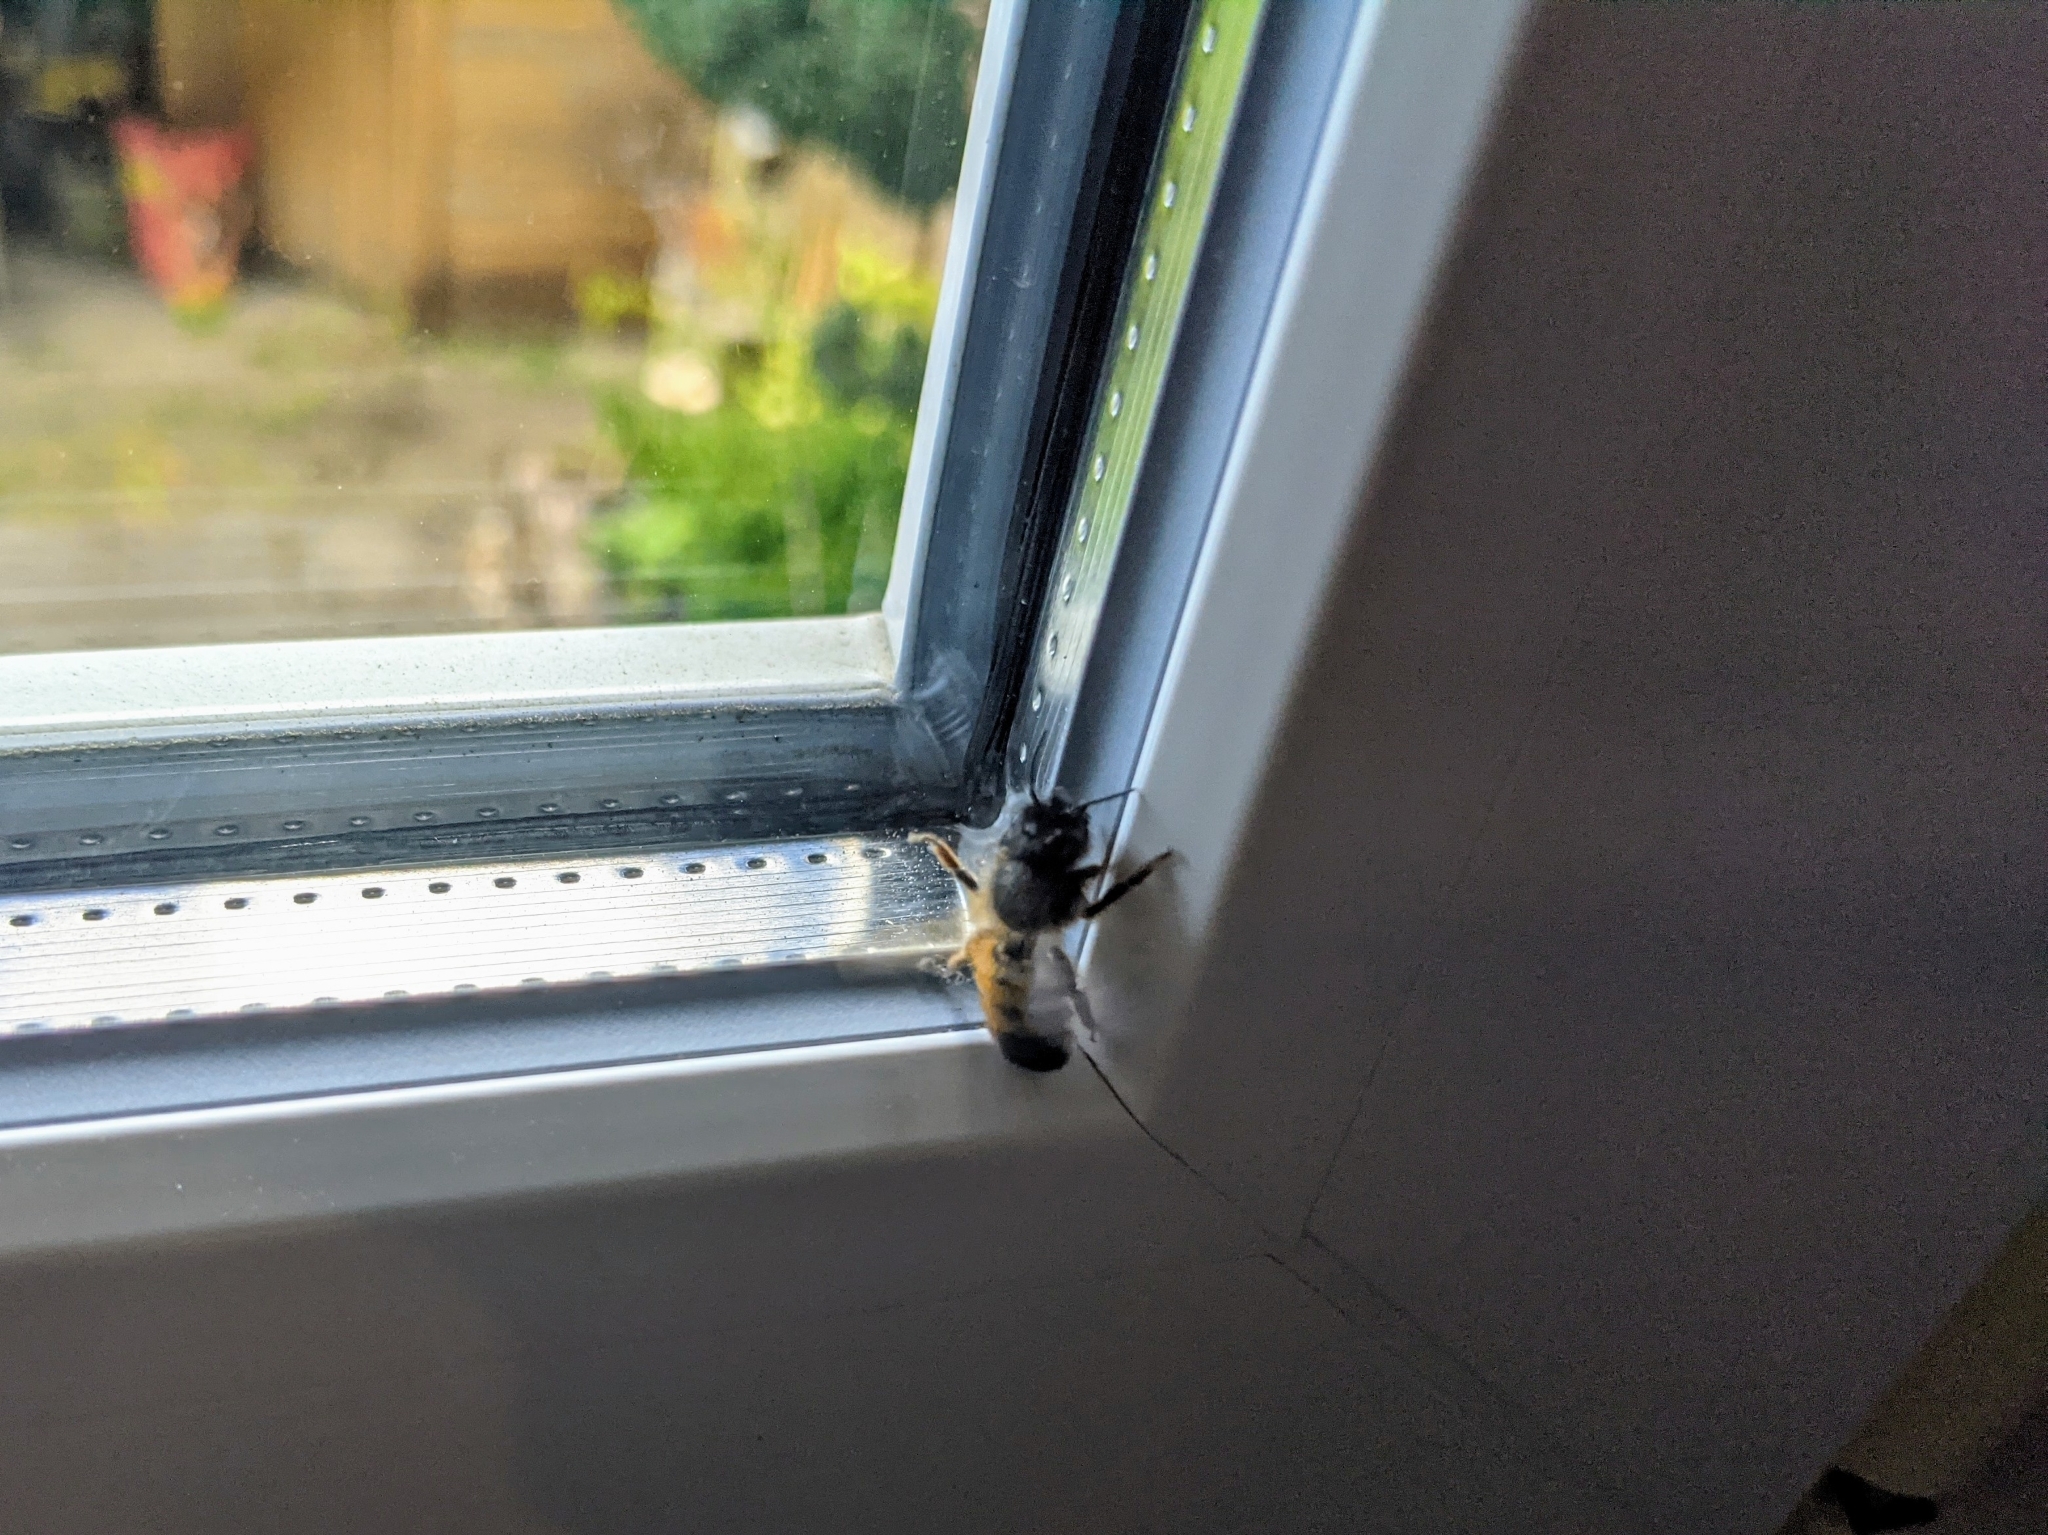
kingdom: Animalia
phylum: Arthropoda
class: Insecta
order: Hymenoptera
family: Megachilidae
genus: Osmia
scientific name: Osmia bicornis
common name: Red mason bee
